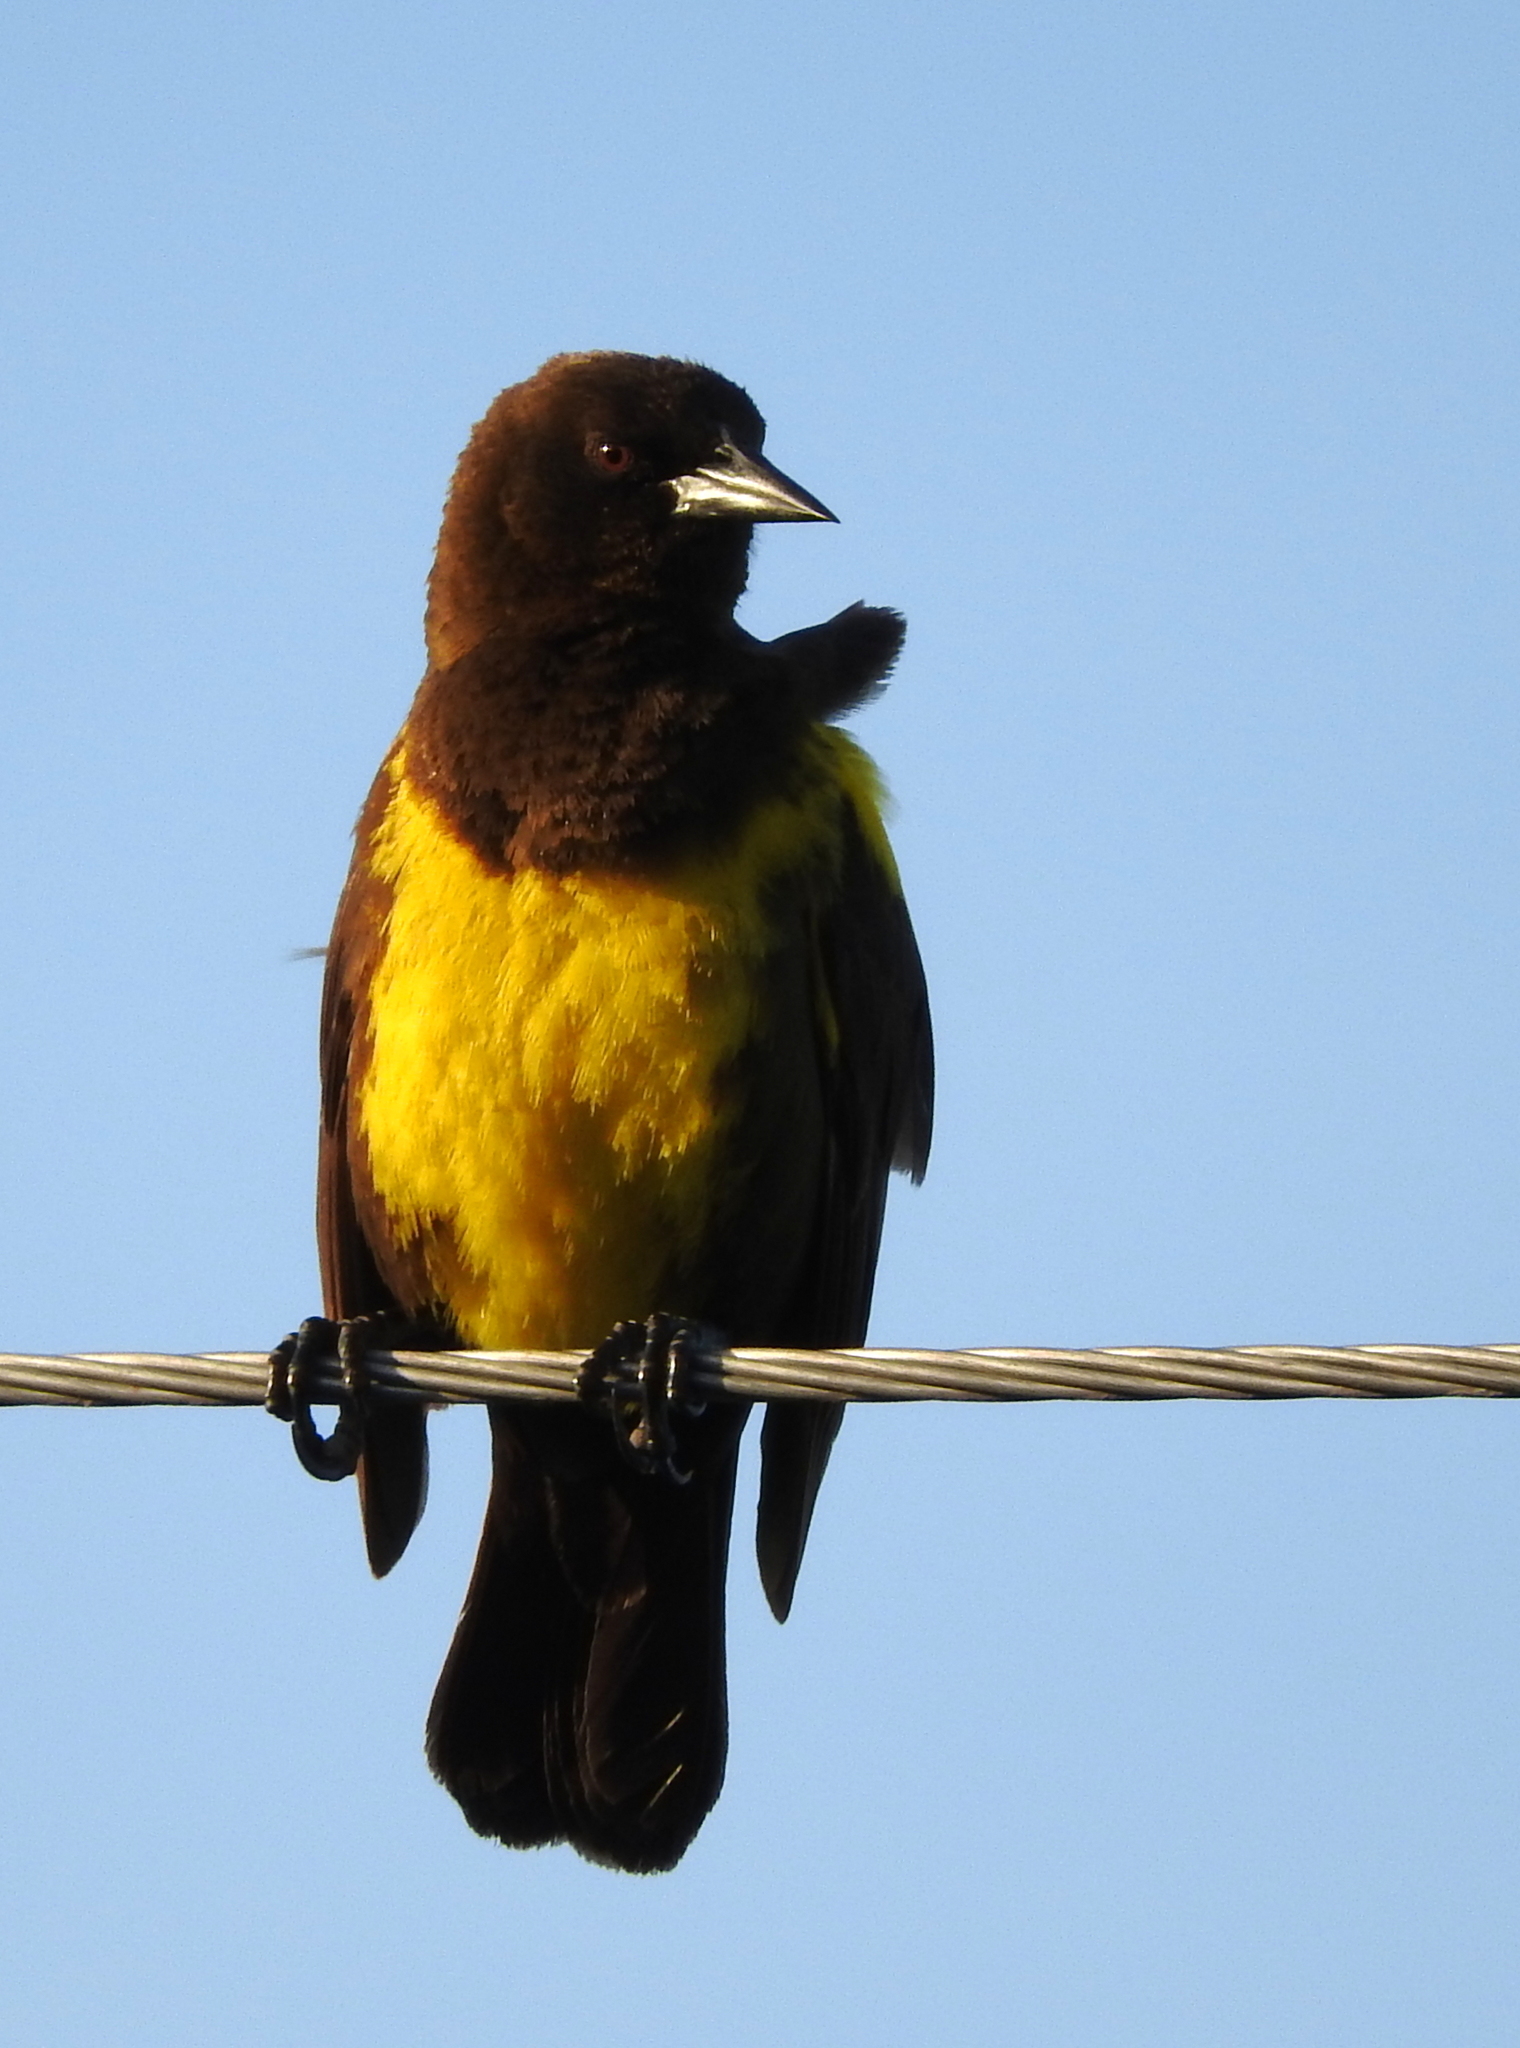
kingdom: Animalia
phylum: Chordata
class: Aves
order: Passeriformes
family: Icteridae
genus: Pseudoleistes
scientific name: Pseudoleistes virescens
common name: Brown-and-yellow marshbird
